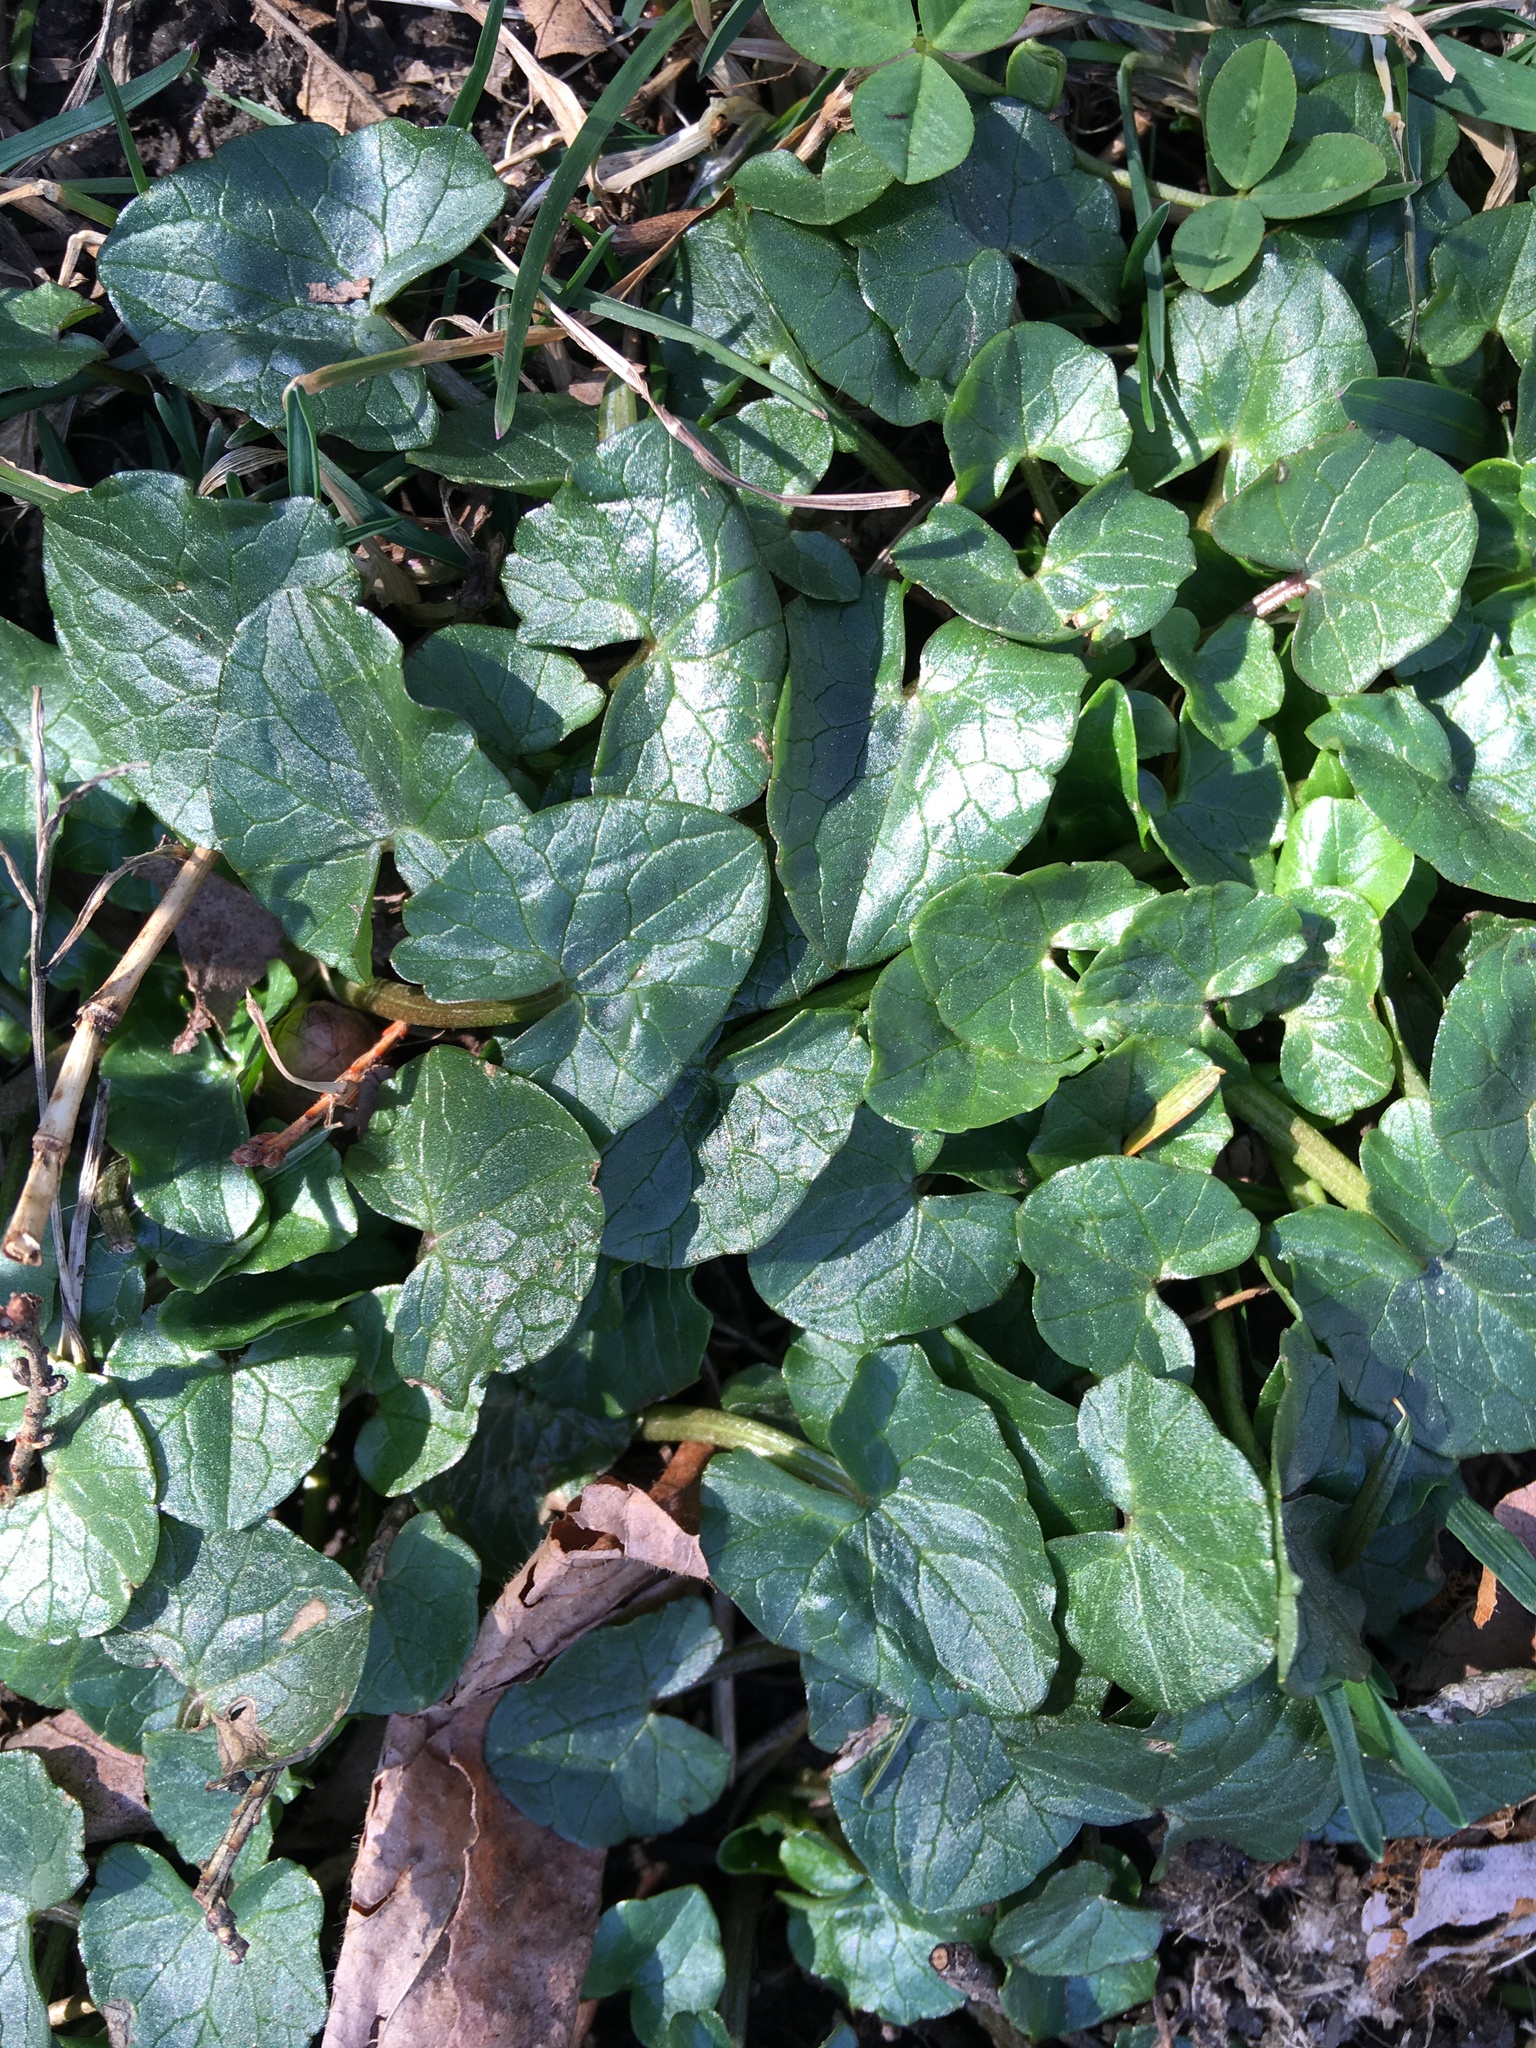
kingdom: Plantae
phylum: Tracheophyta
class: Magnoliopsida
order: Ranunculales
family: Ranunculaceae
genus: Ficaria
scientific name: Ficaria verna
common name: Lesser celandine
